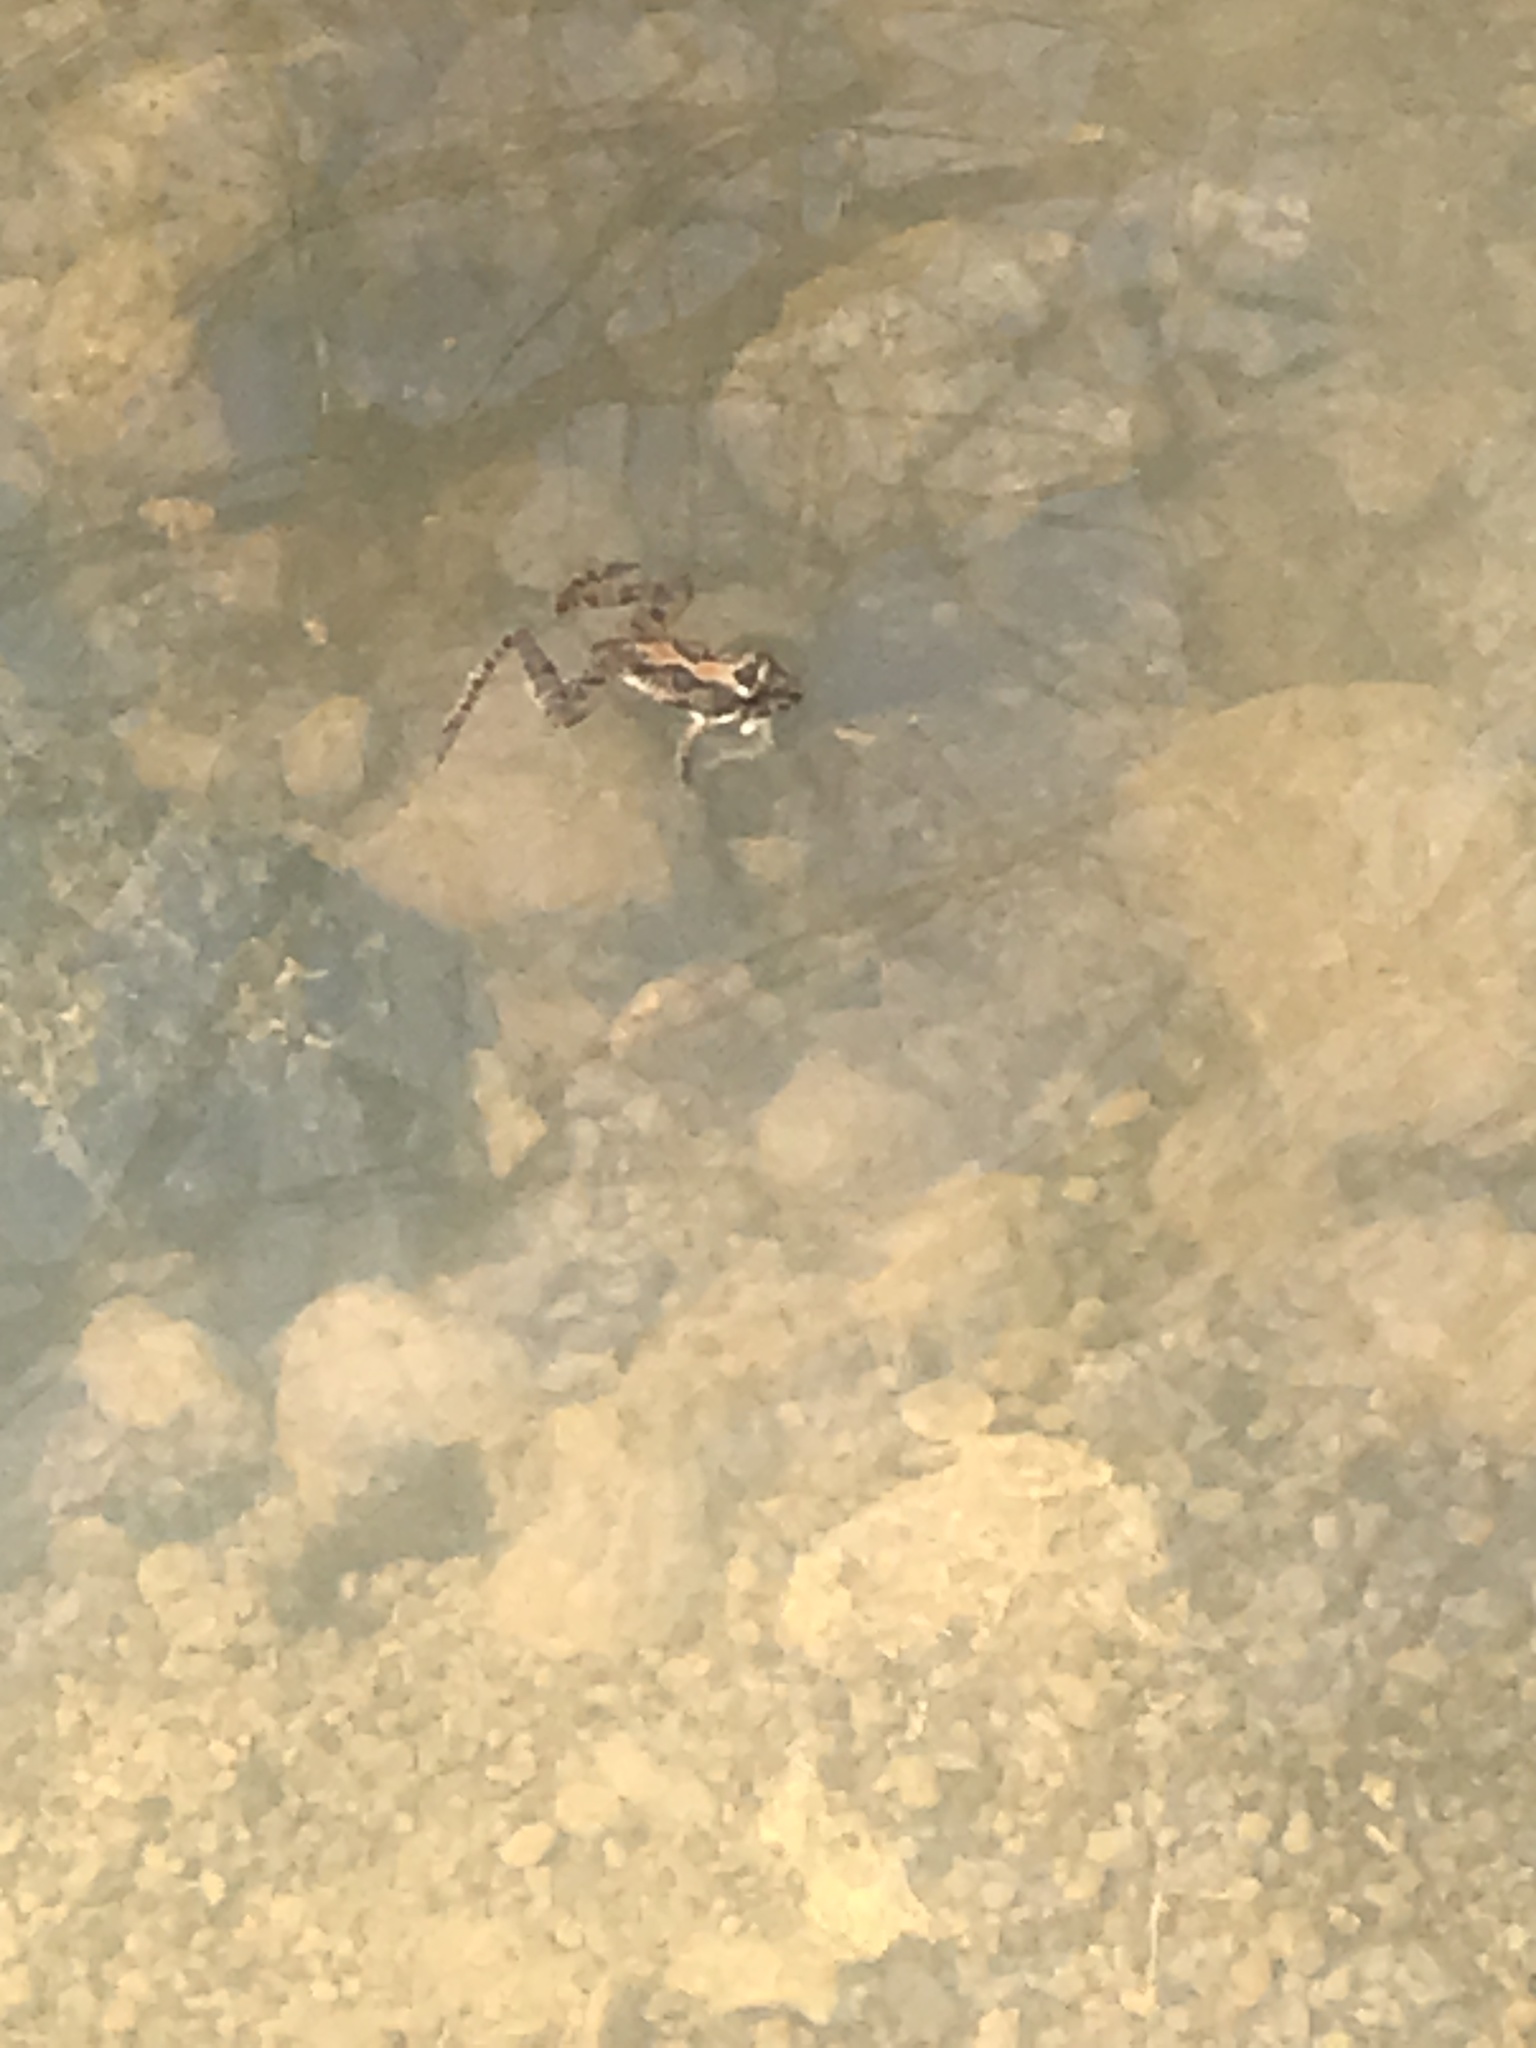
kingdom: Animalia
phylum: Chordata
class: Amphibia
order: Anura
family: Hylidae
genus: Acris
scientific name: Acris blanchardi
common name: Blanchard's cricket frog
